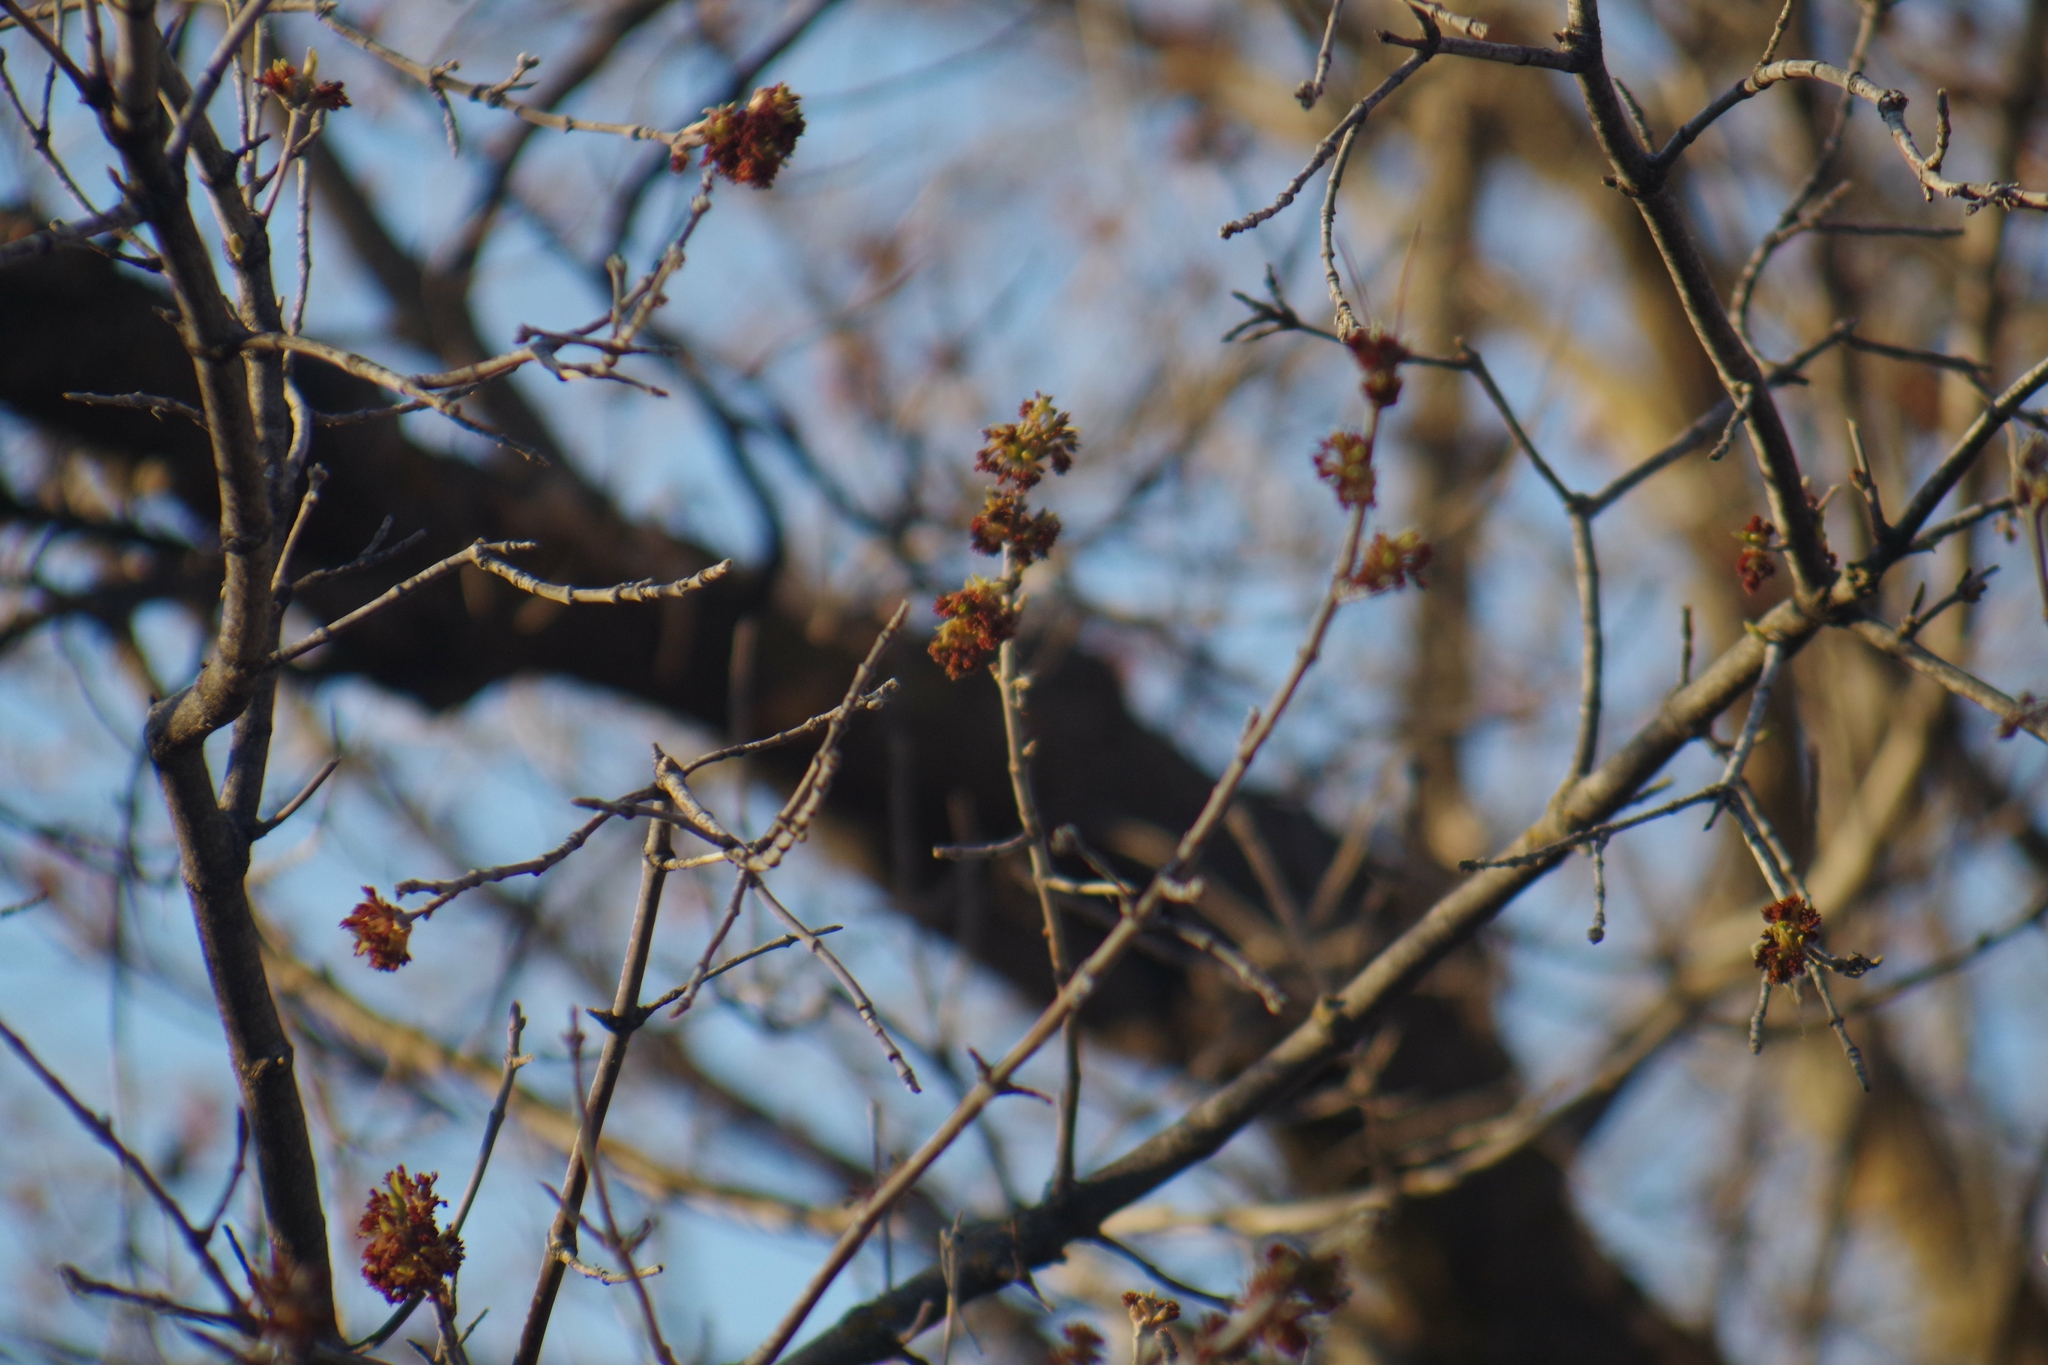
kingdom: Plantae
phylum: Tracheophyta
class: Magnoliopsida
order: Sapindales
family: Sapindaceae
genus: Acer
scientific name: Acer negundo
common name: Ashleaf maple
